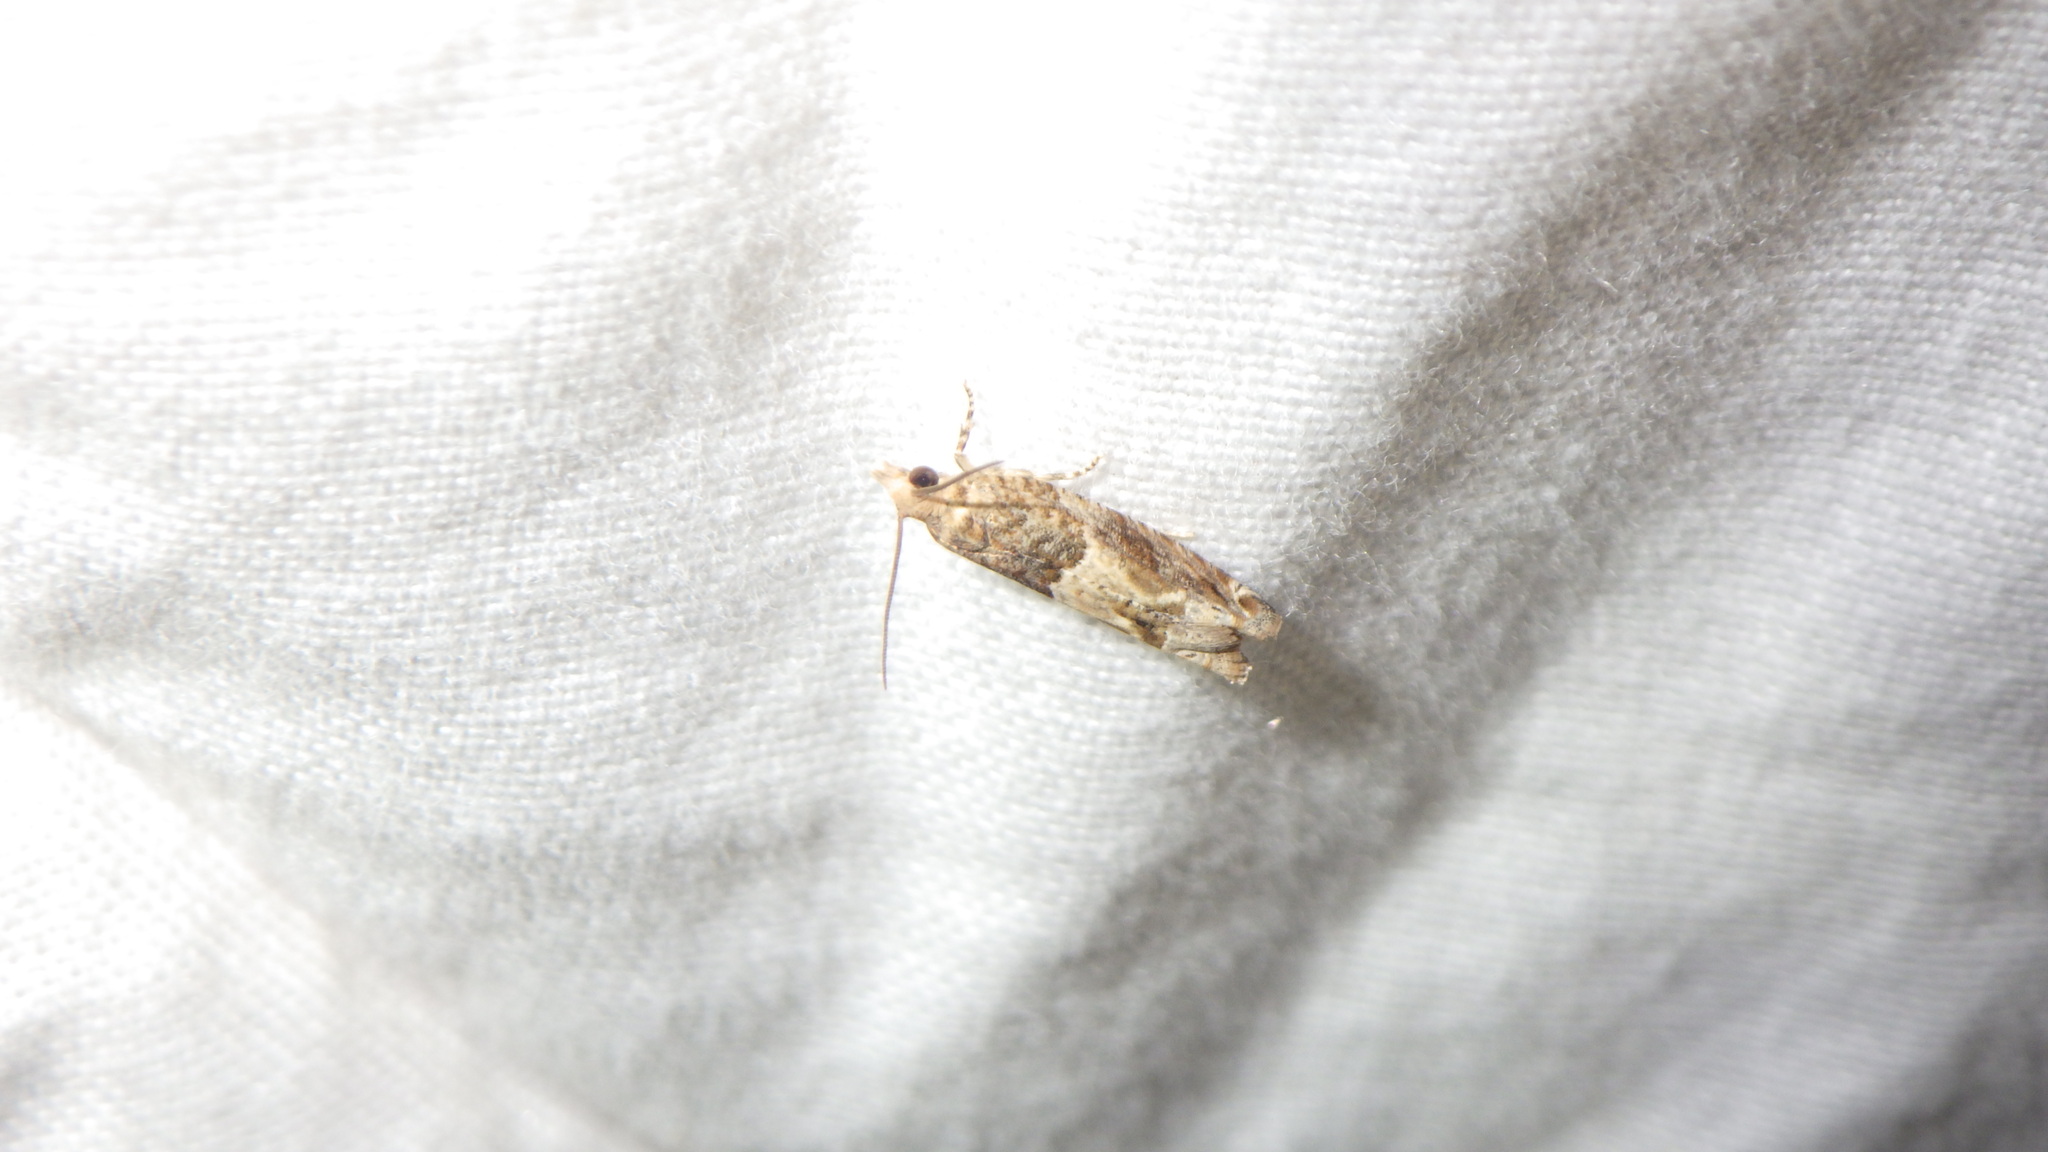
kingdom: Animalia
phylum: Arthropoda
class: Insecta
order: Lepidoptera
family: Tortricidae
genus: Crocidosema
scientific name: Crocidosema plebejana
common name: Southern bell
